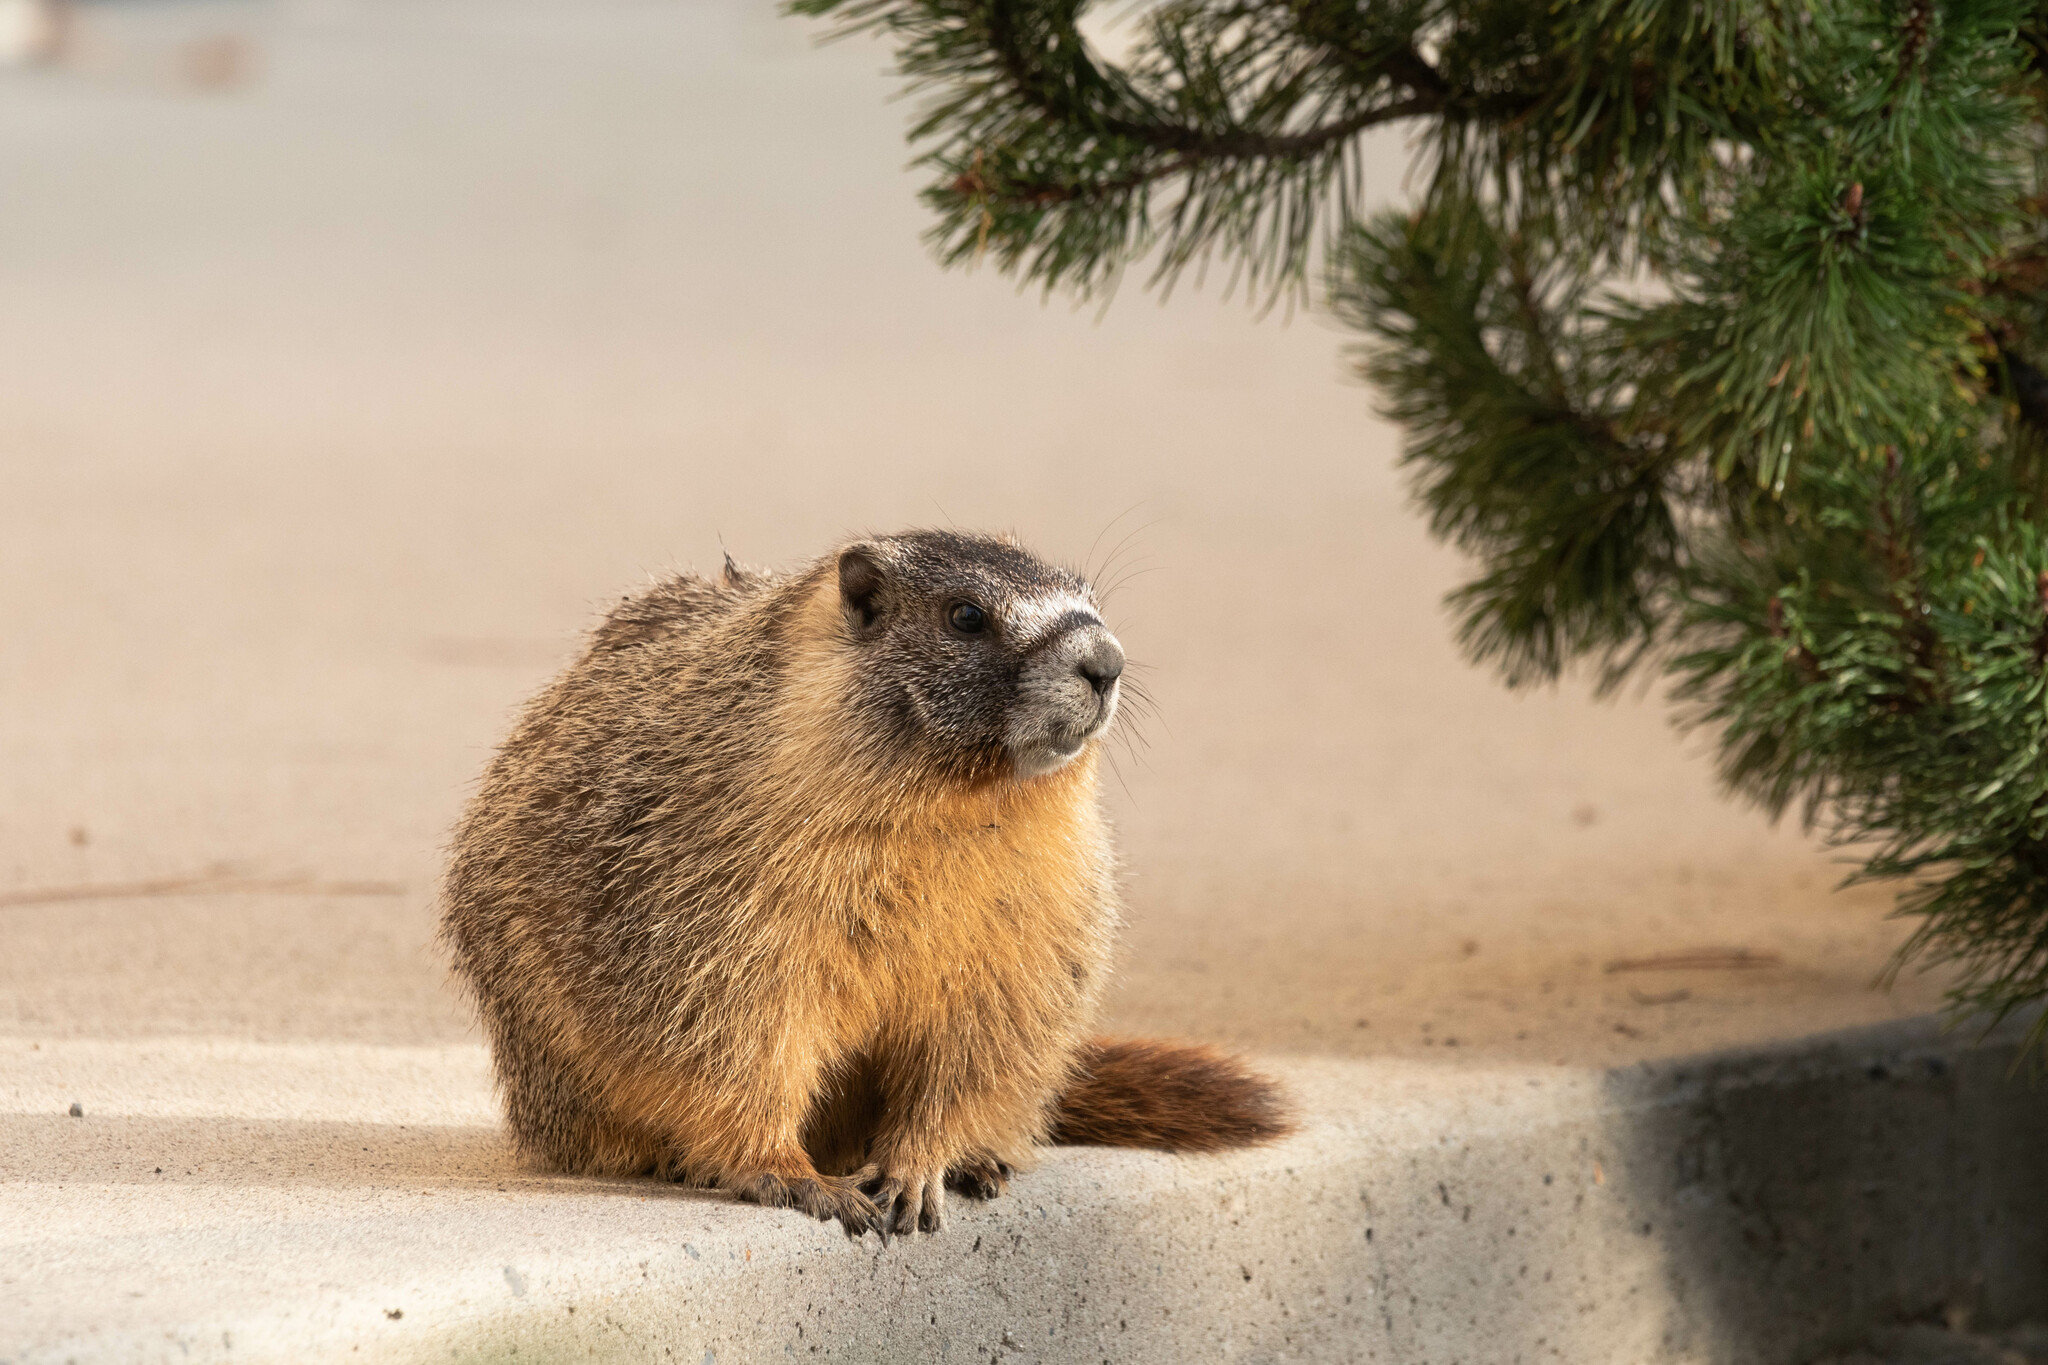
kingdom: Animalia
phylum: Chordata
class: Mammalia
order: Rodentia
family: Sciuridae
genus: Marmota
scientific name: Marmota flaviventris
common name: Yellow-bellied marmot
